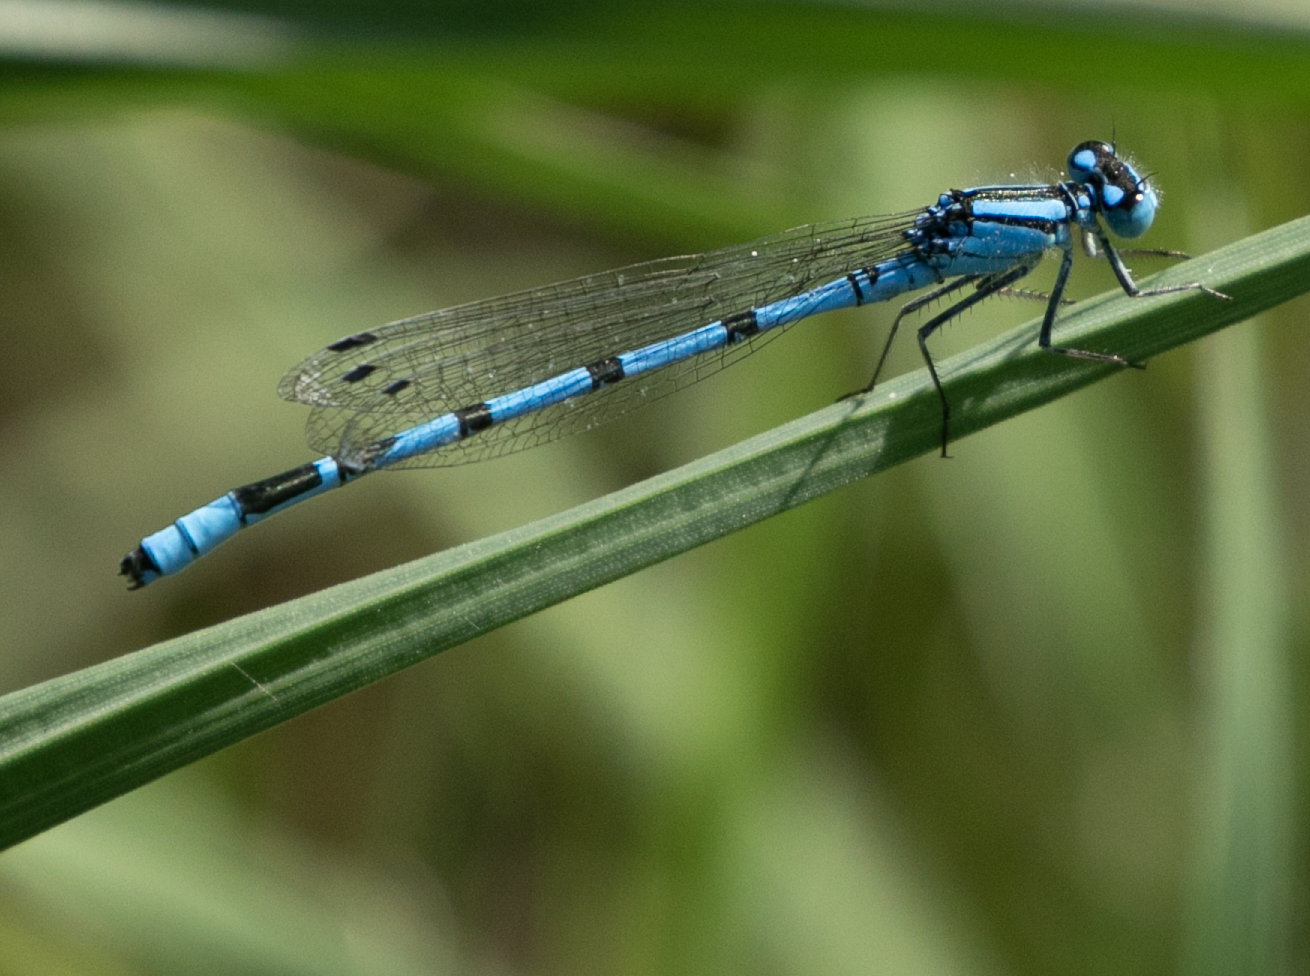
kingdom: Animalia
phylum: Arthropoda
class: Insecta
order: Odonata
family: Coenagrionidae
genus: Enallagma
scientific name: Enallagma cyathigerum
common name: Common blue damselfly
